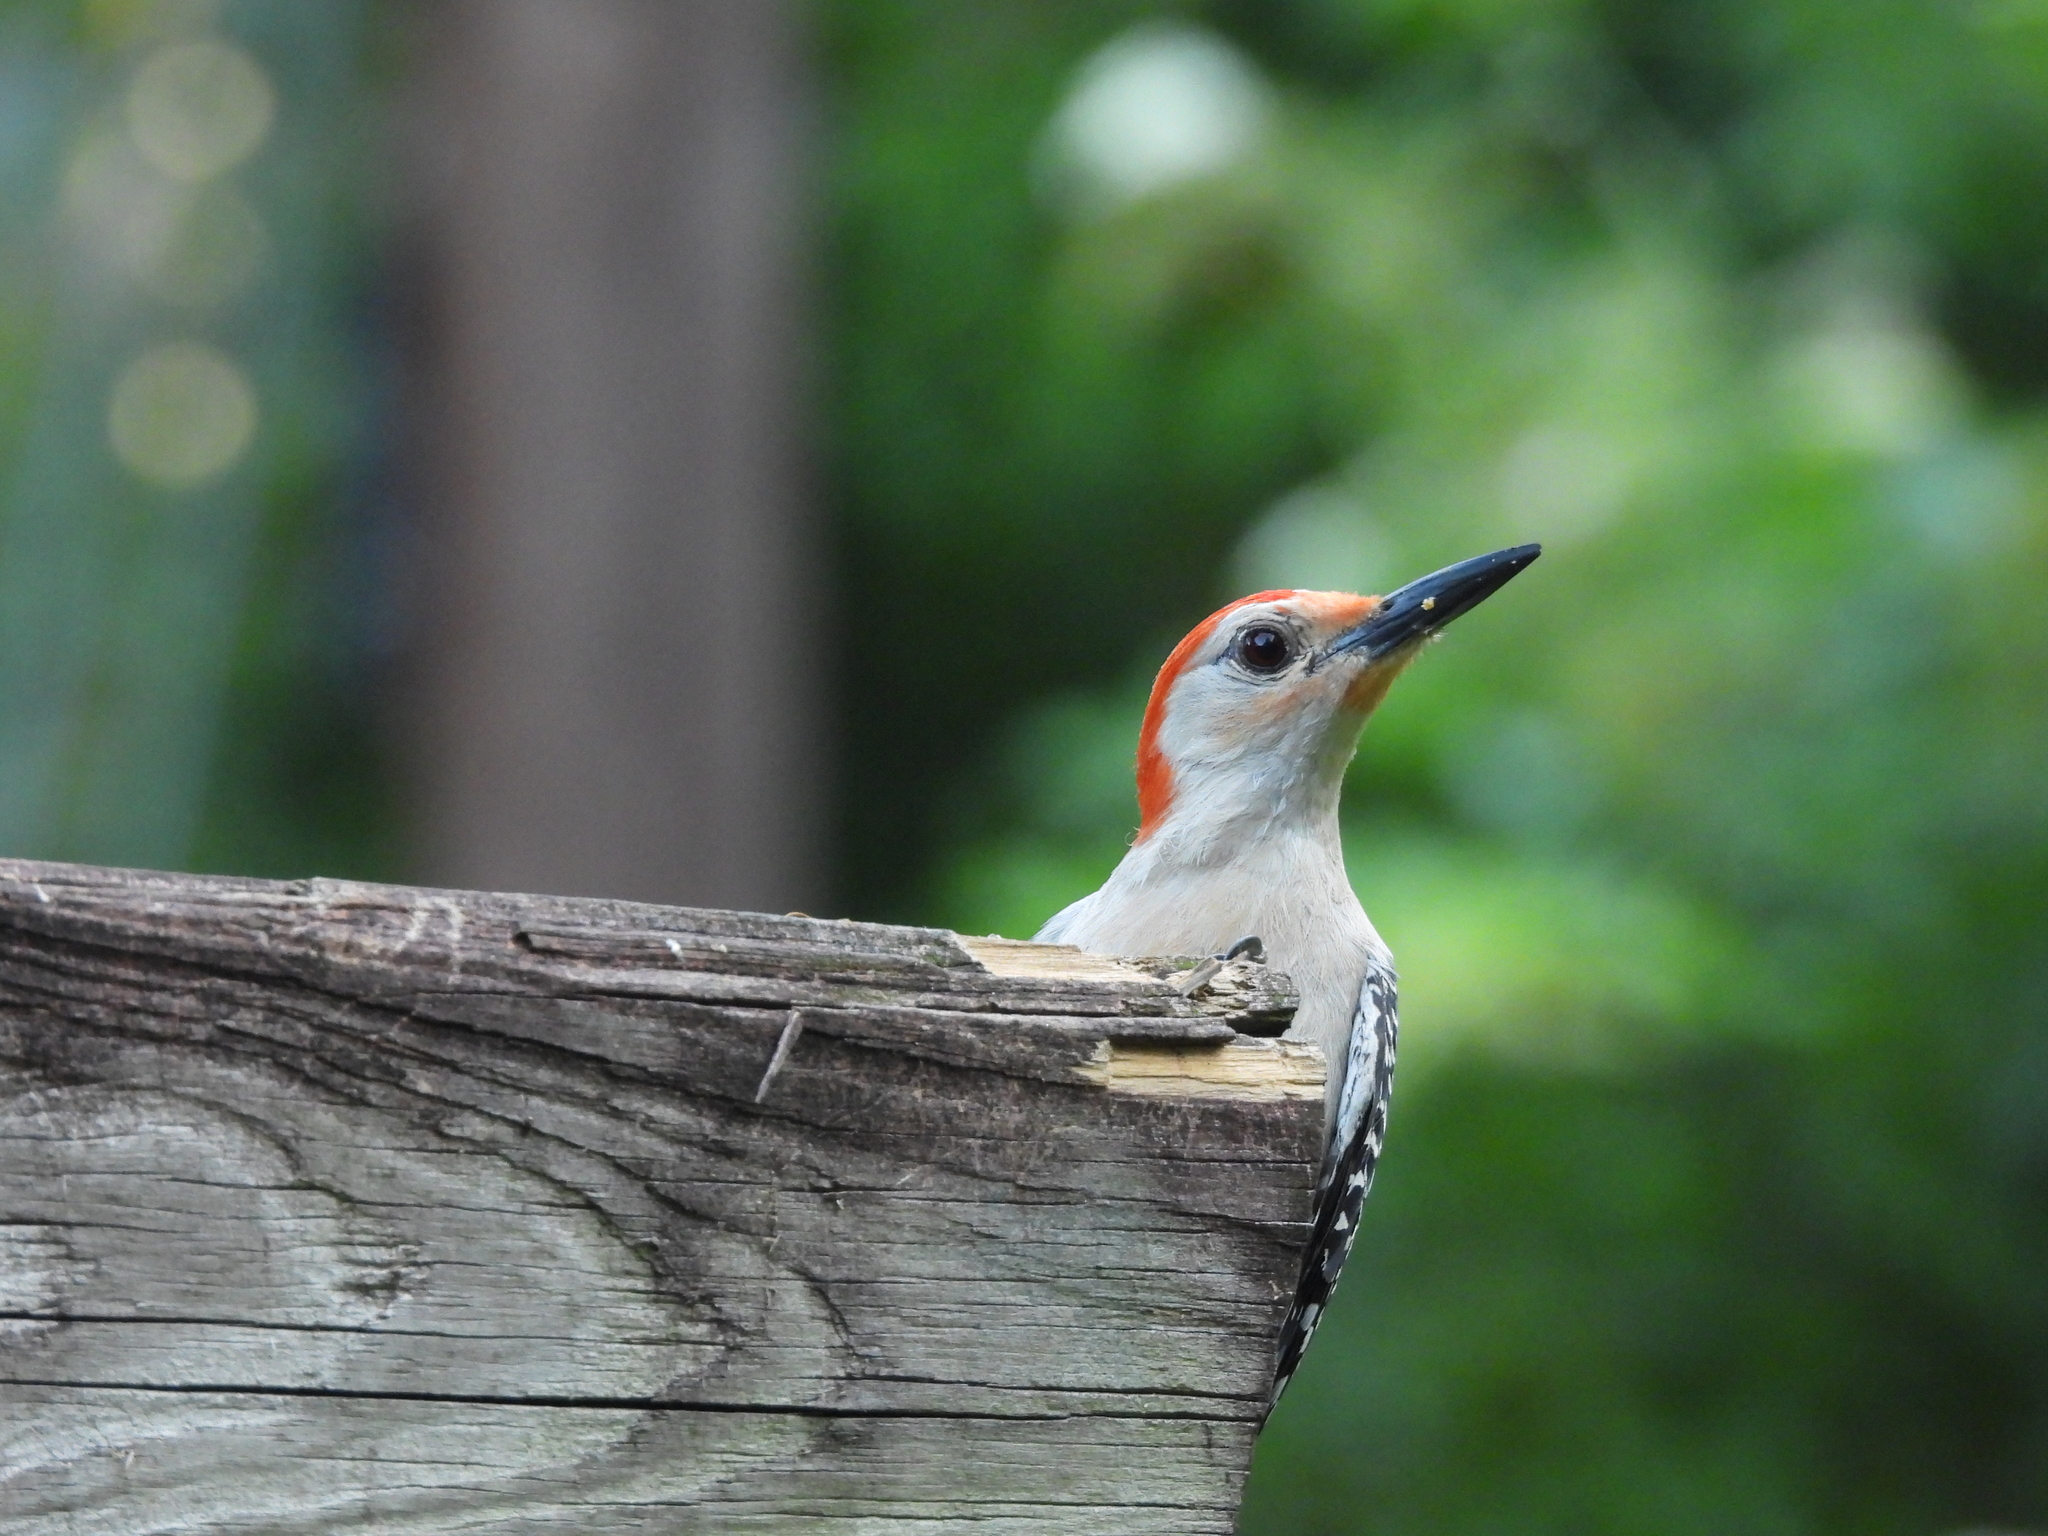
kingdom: Animalia
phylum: Chordata
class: Aves
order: Piciformes
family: Picidae
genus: Melanerpes
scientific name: Melanerpes carolinus
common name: Red-bellied woodpecker
